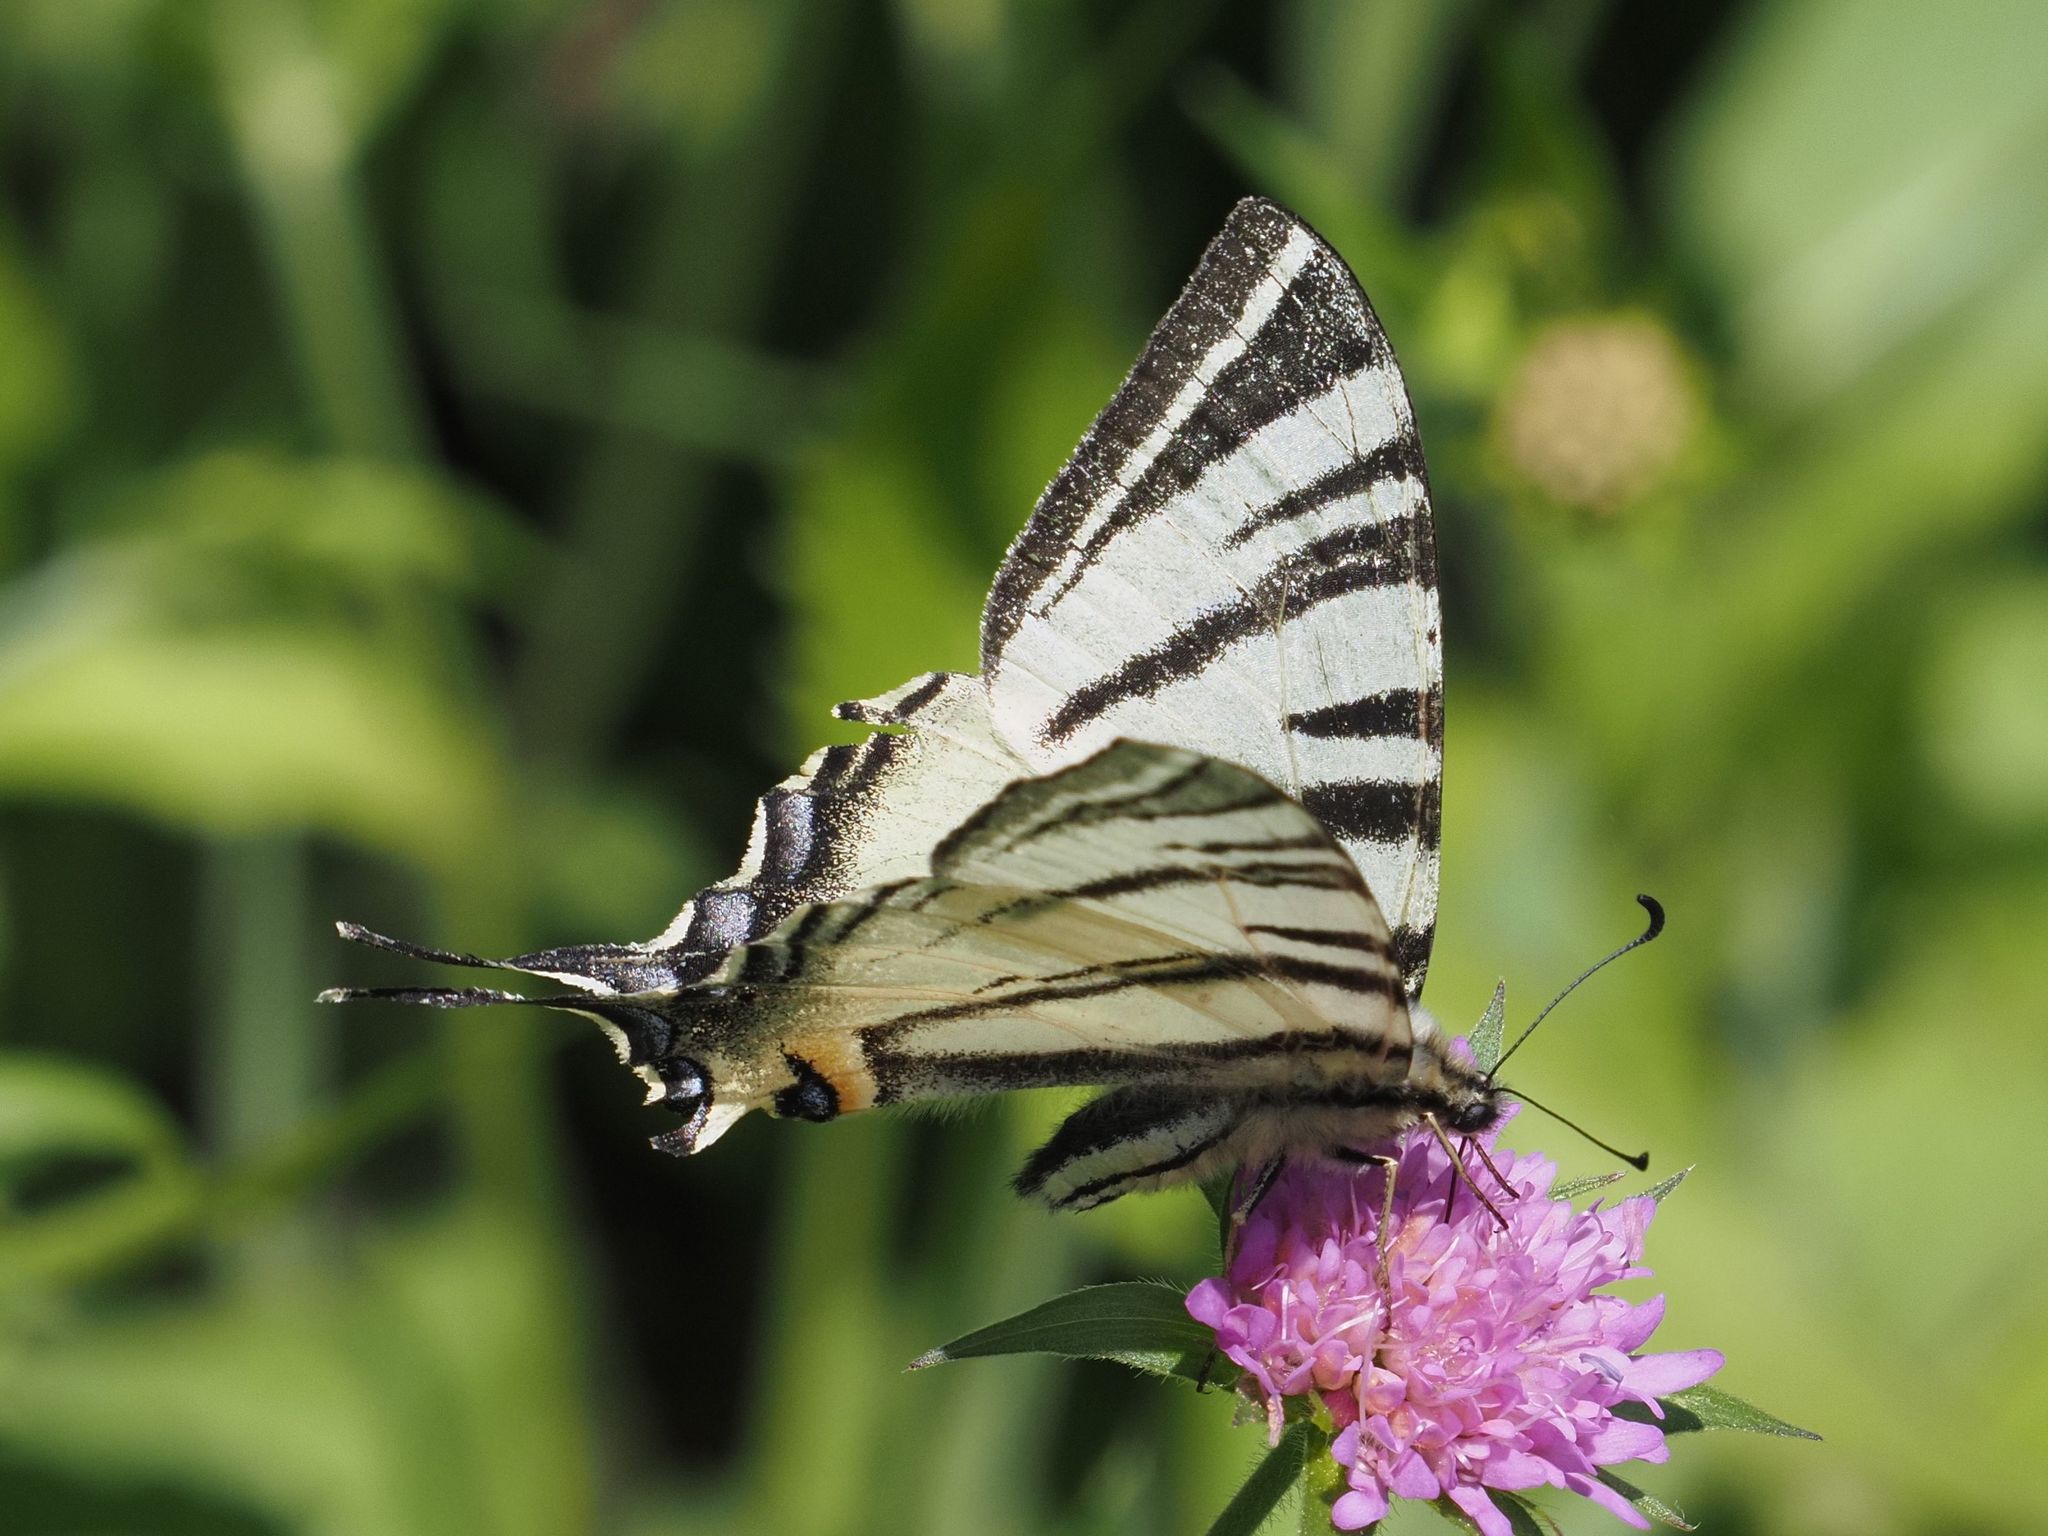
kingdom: Animalia
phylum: Arthropoda
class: Insecta
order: Lepidoptera
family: Papilionidae
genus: Iphiclides
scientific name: Iphiclides podalirius
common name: Scarce swallowtail
